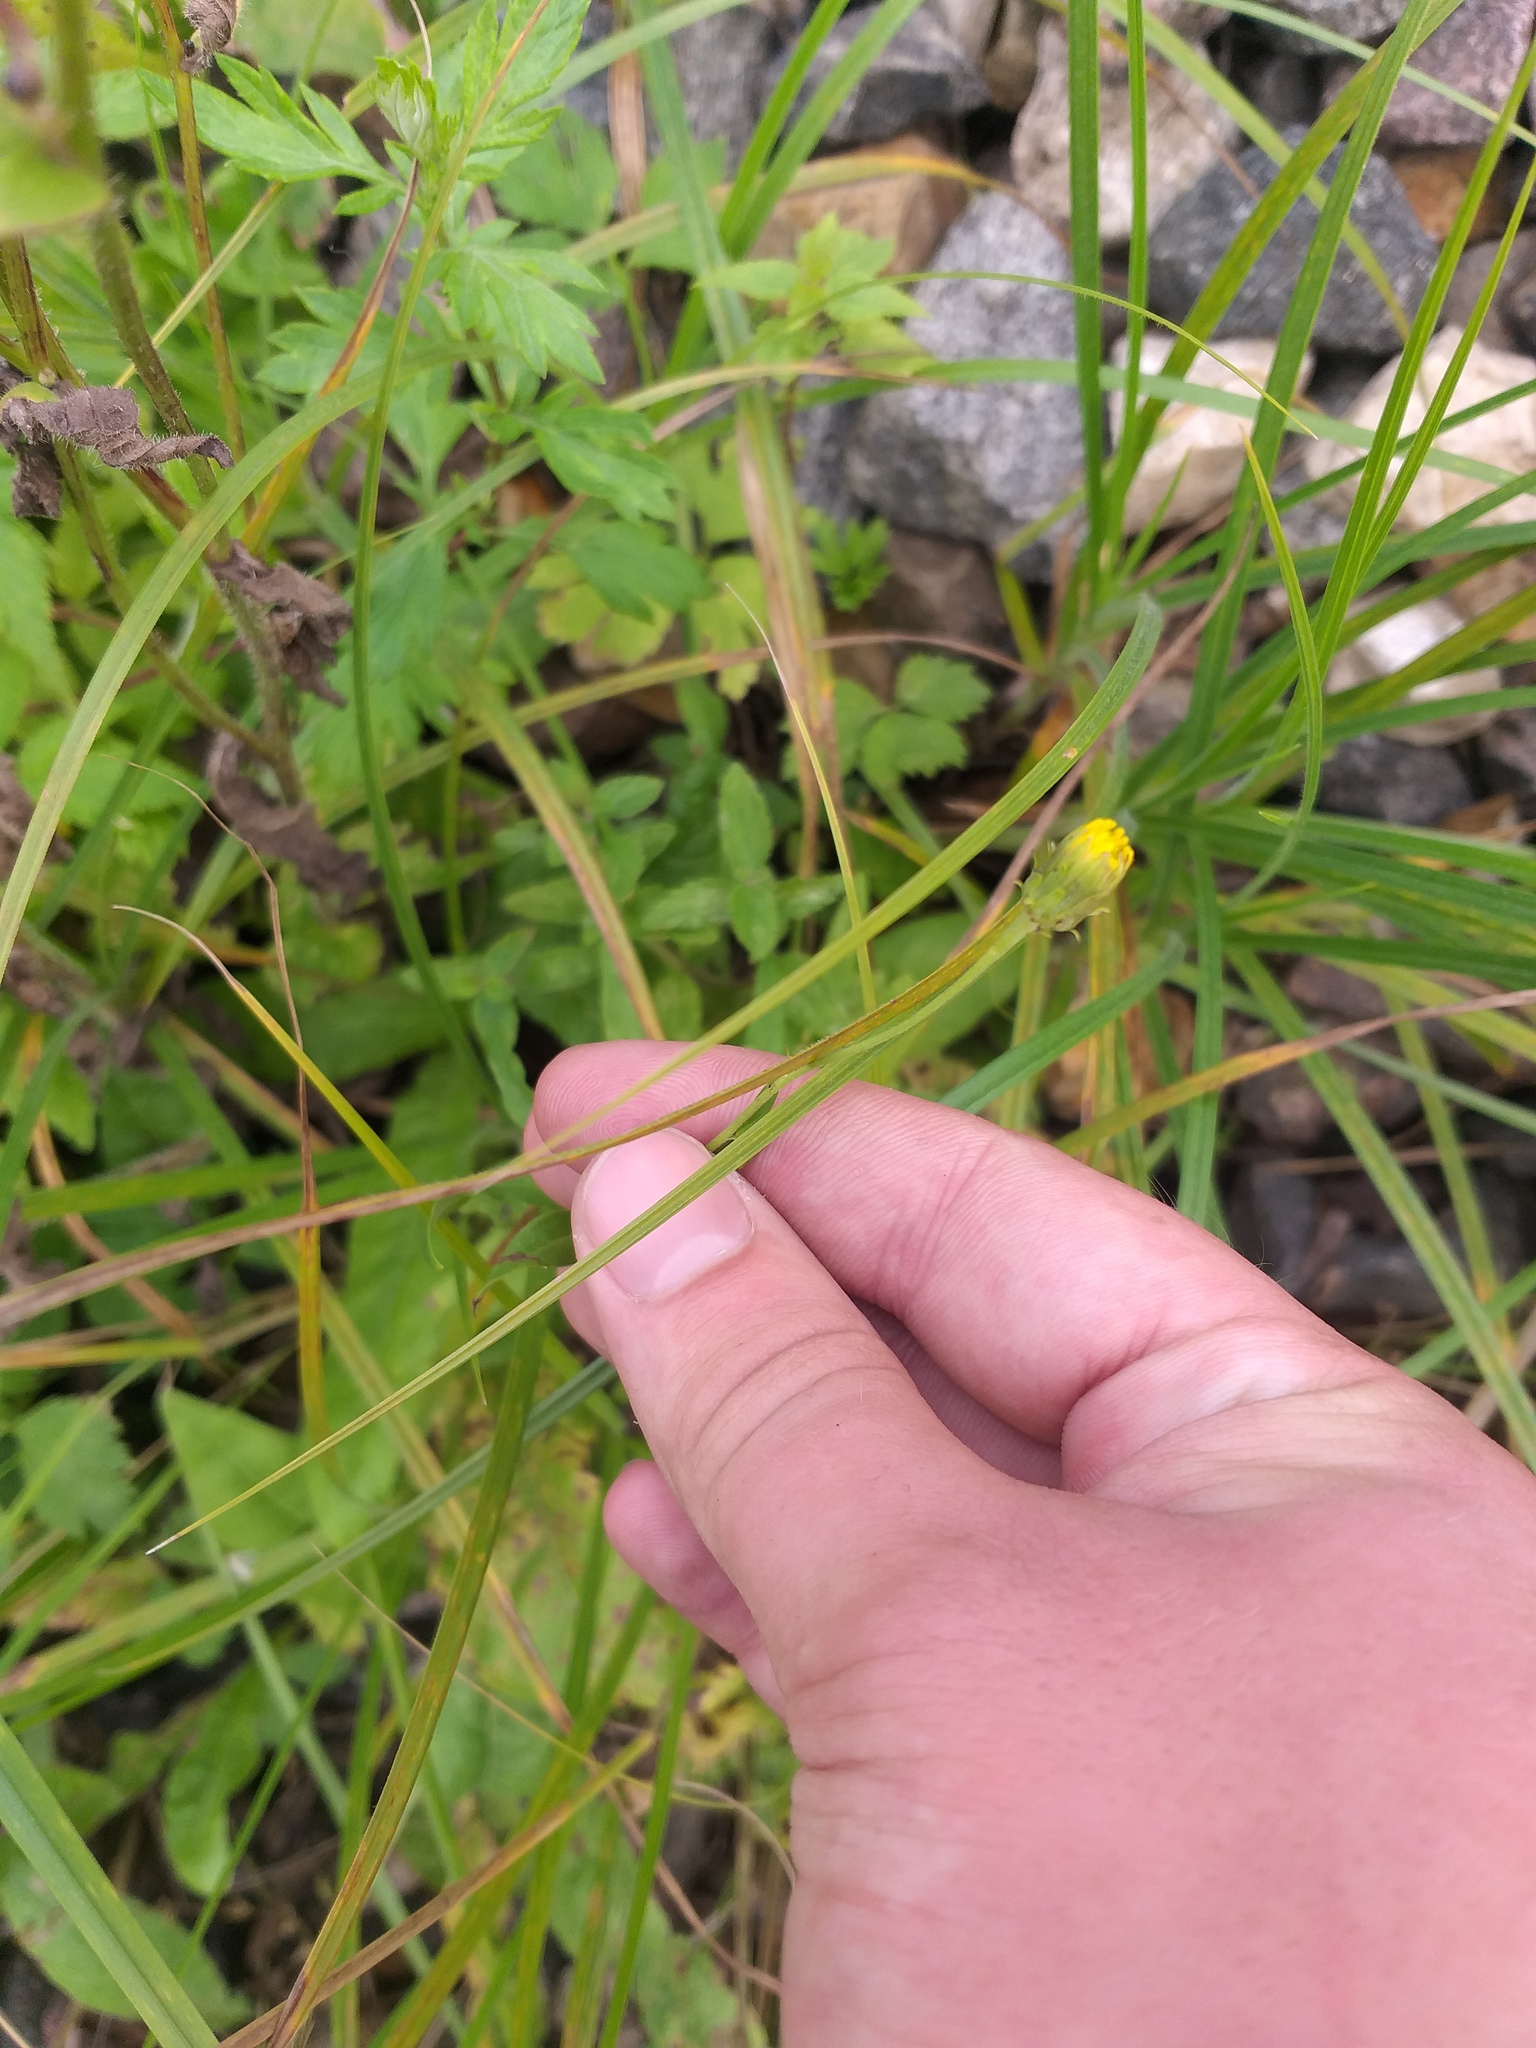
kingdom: Plantae
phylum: Tracheophyta
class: Magnoliopsida
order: Asterales
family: Asteraceae
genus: Hieracium
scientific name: Hieracium umbellatum
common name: Northern hawkweed
